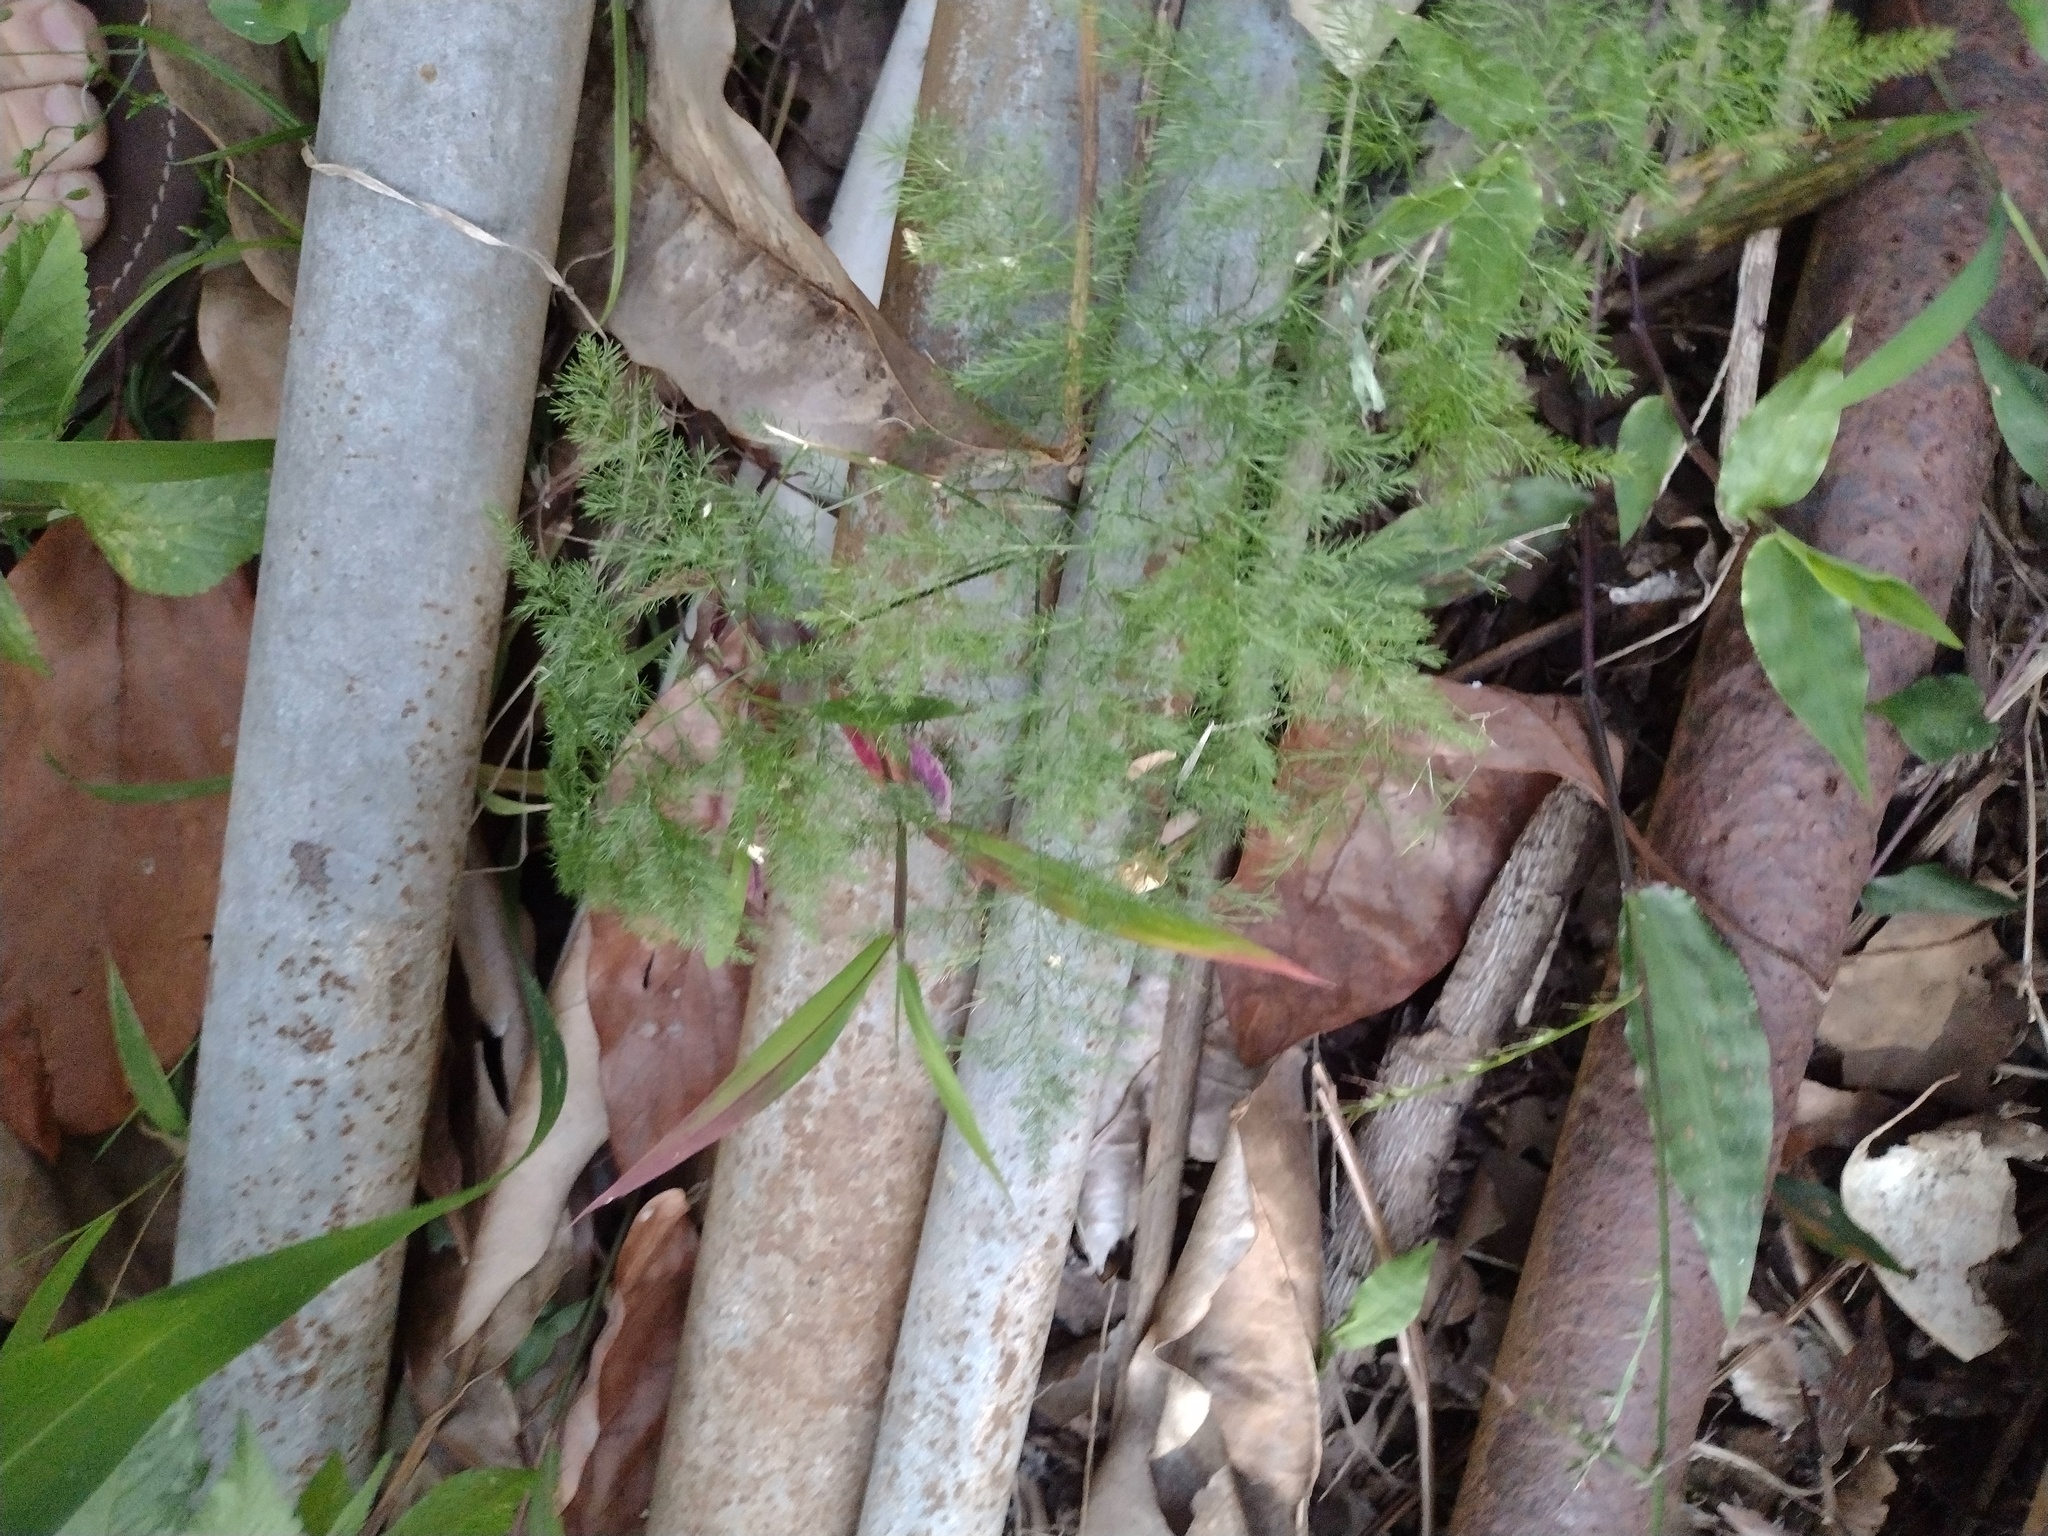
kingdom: Plantae
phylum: Tracheophyta
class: Liliopsida
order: Asparagales
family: Asparagaceae
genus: Asparagus
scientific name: Asparagus setaceus
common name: Common asparagus fern
